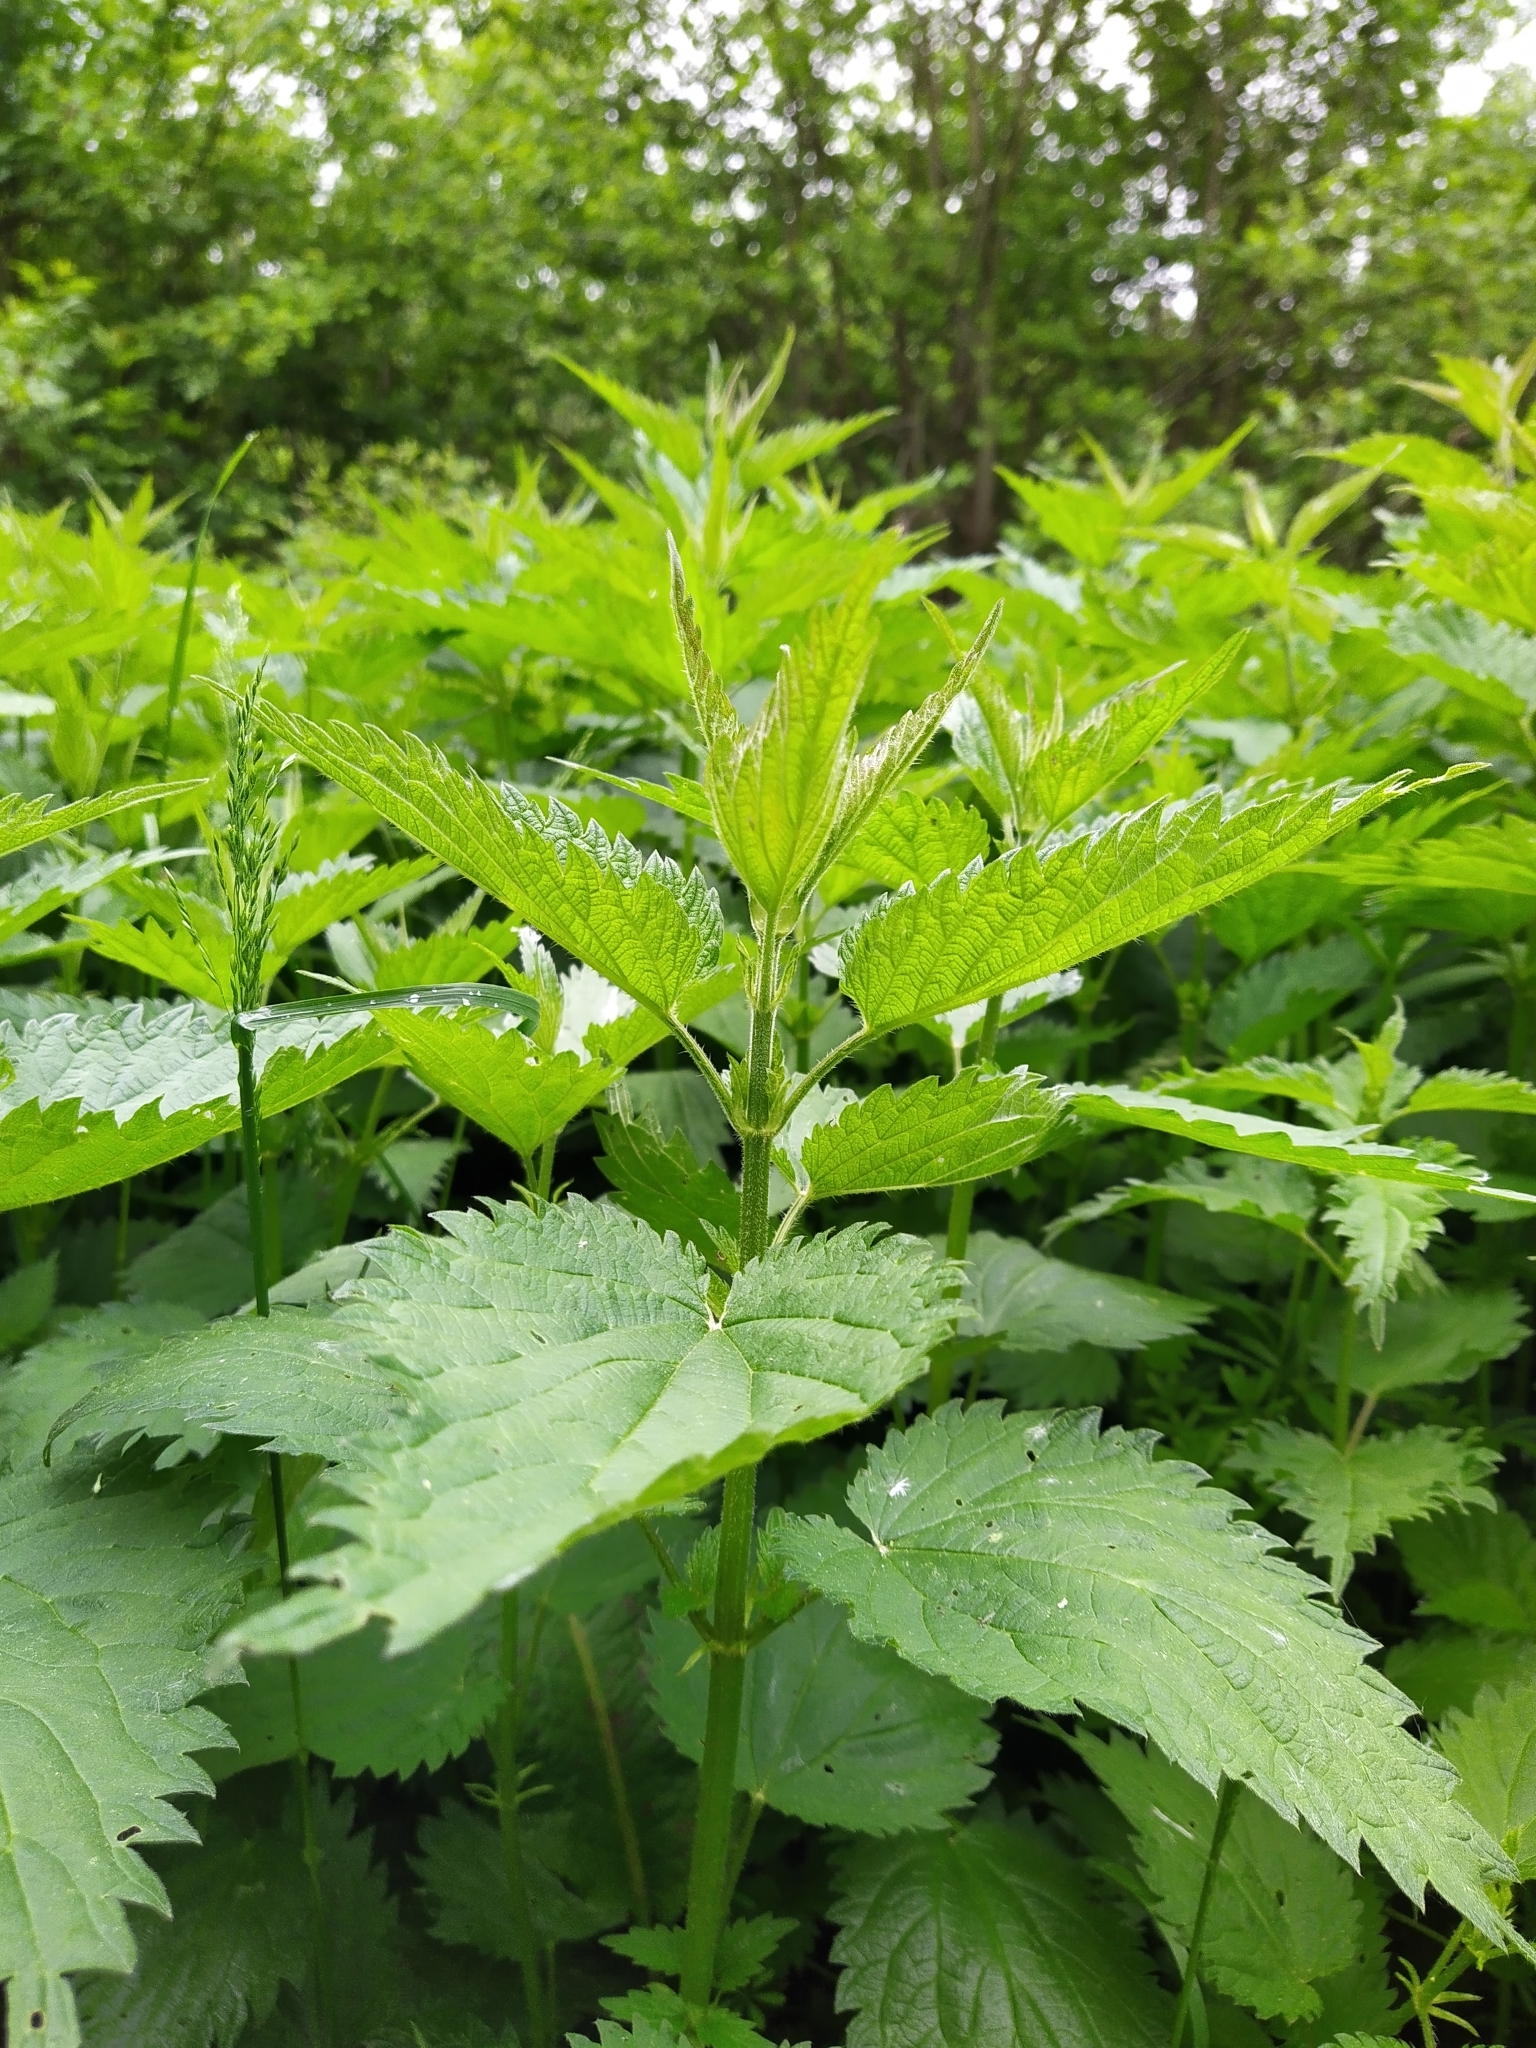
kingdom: Plantae
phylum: Tracheophyta
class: Magnoliopsida
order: Rosales
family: Urticaceae
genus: Urtica
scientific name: Urtica dioica
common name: Common nettle
